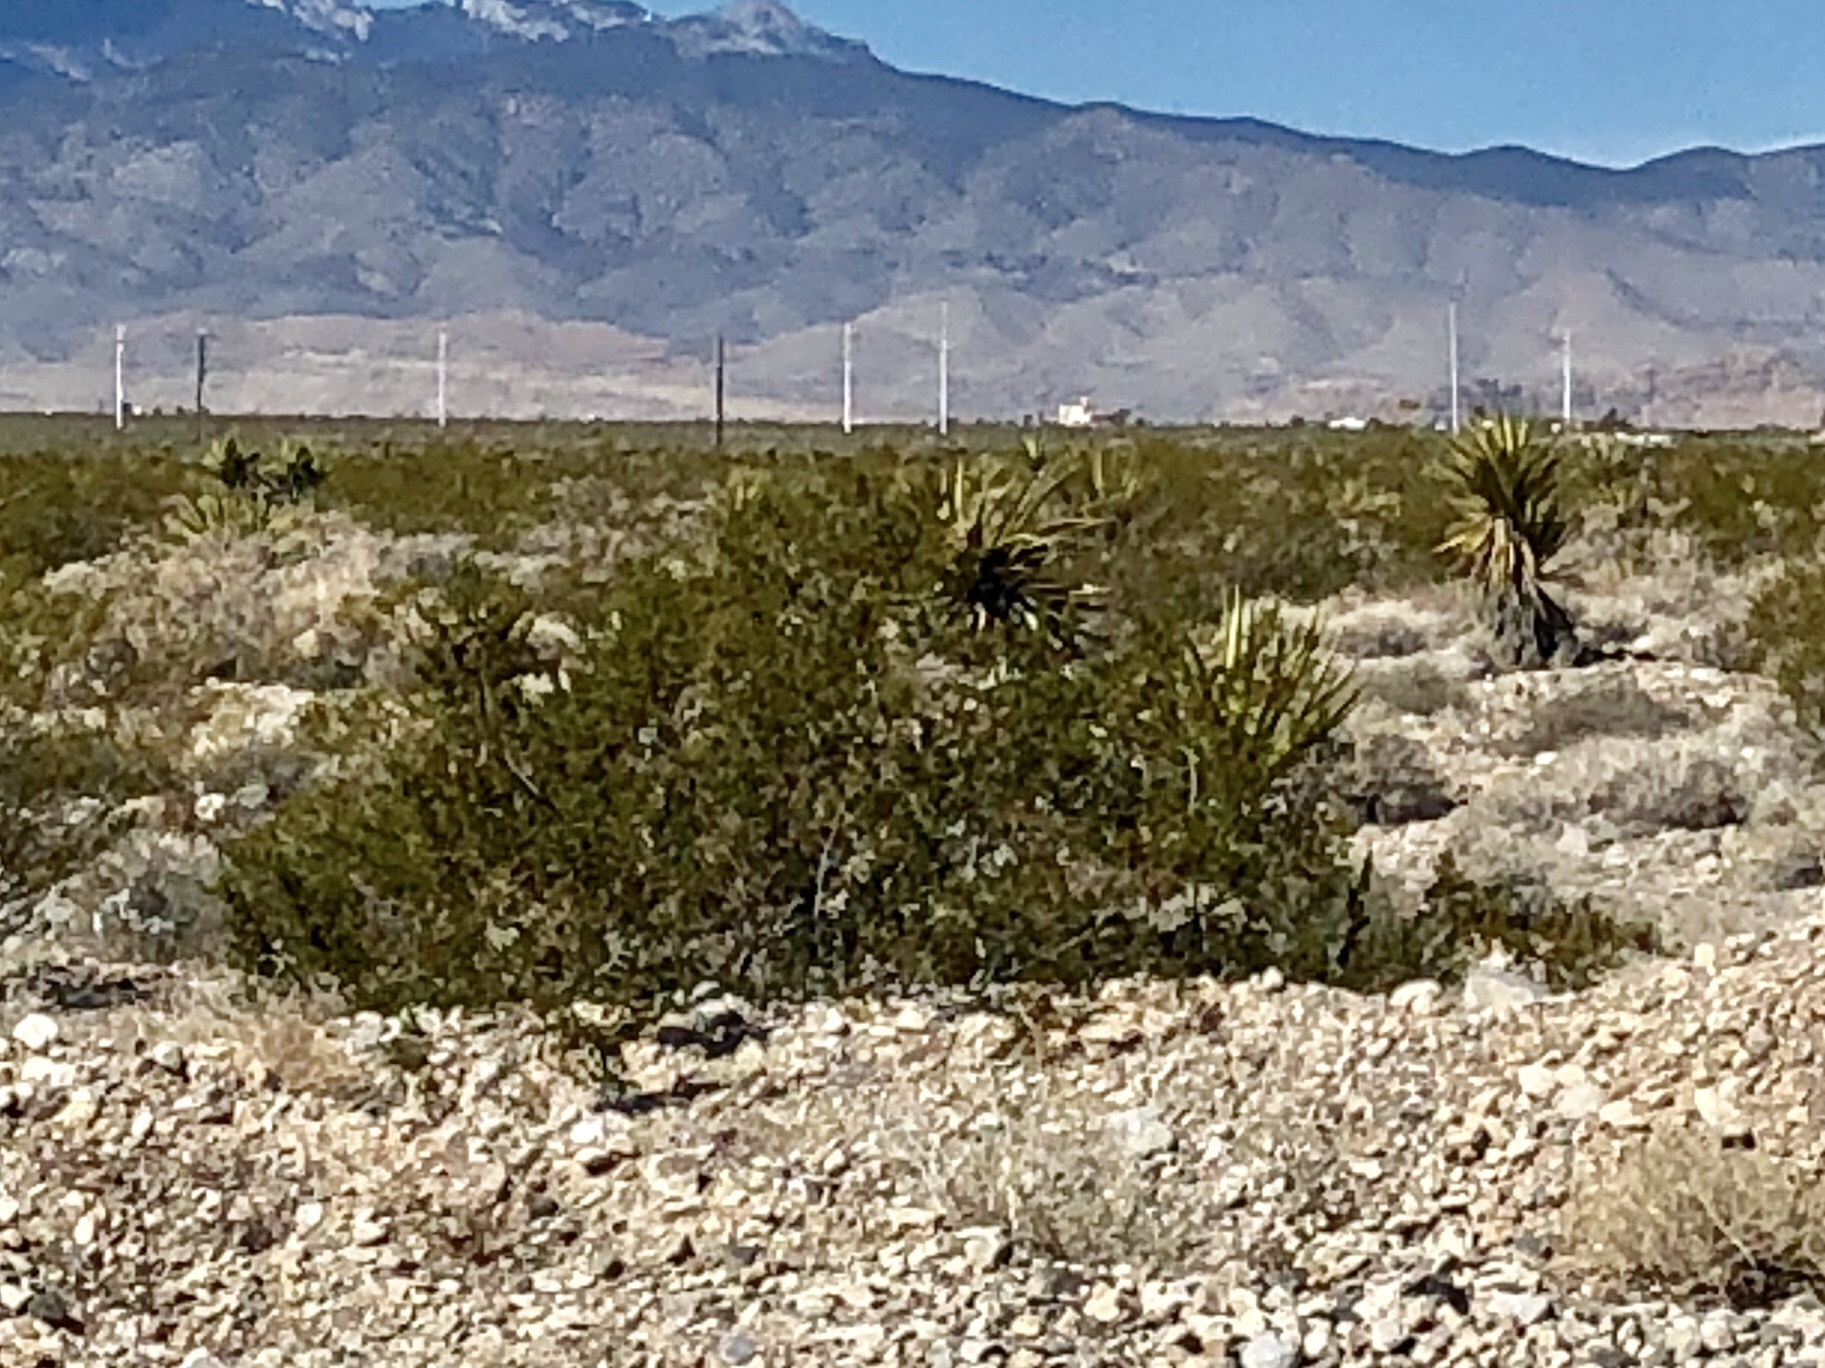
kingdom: Plantae
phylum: Tracheophyta
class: Magnoliopsida
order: Zygophyllales
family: Zygophyllaceae
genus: Larrea
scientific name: Larrea tridentata
